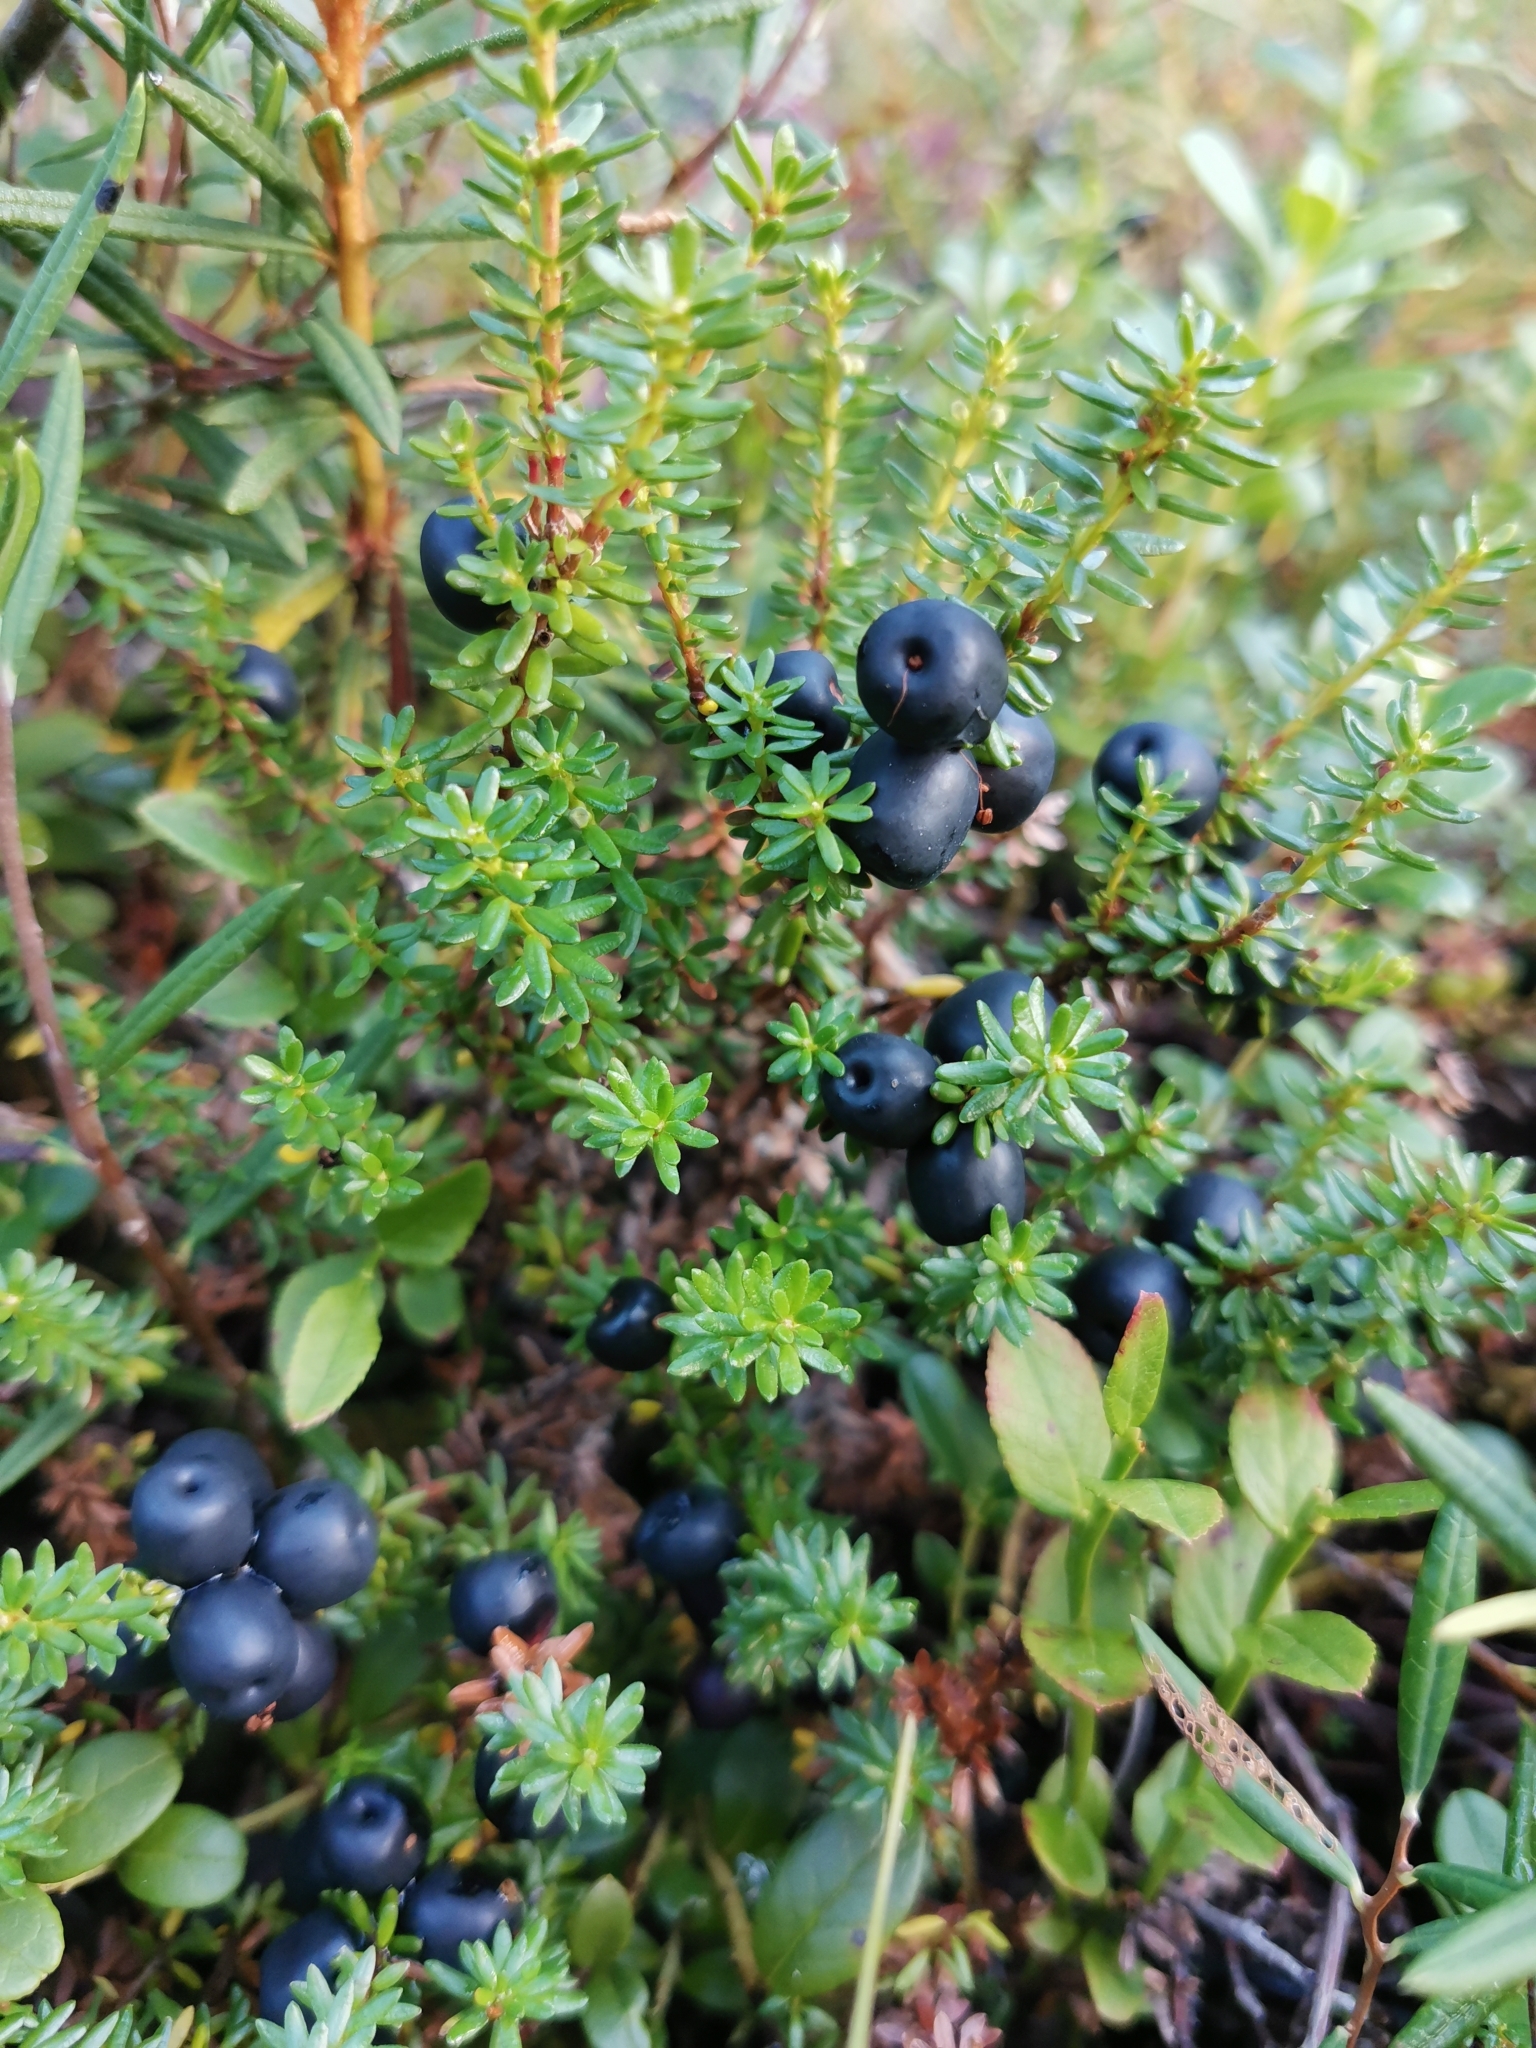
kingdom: Plantae
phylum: Tracheophyta
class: Magnoliopsida
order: Ericales
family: Ericaceae
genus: Empetrum
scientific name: Empetrum nigrum
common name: Black crowberry
